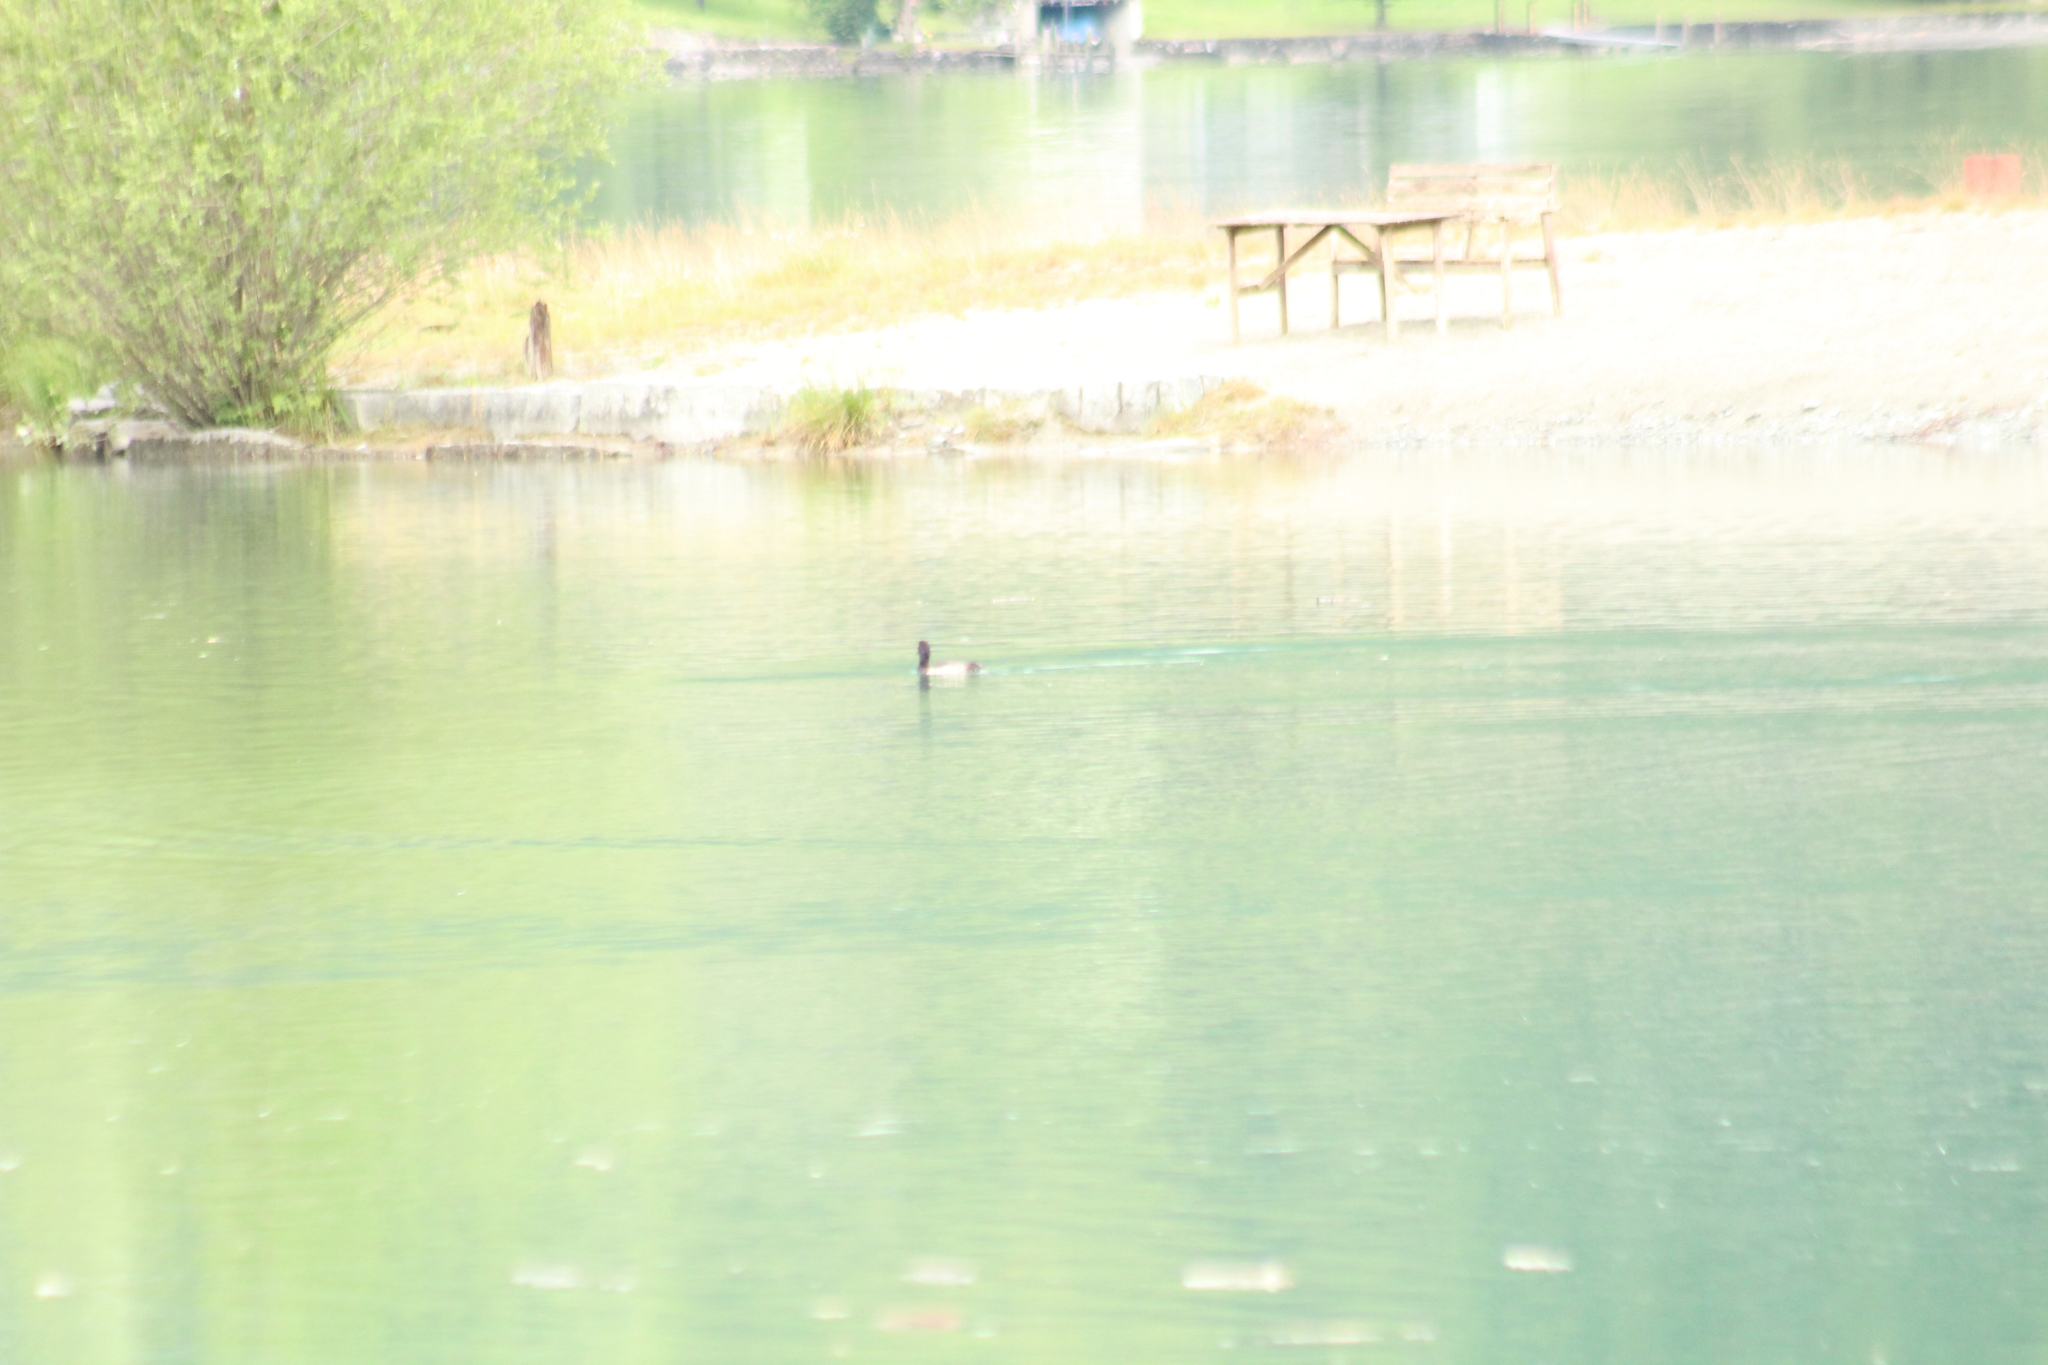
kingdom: Animalia
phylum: Chordata
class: Aves
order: Anseriformes
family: Anatidae
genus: Aythya
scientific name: Aythya fuligula
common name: Tufted duck
